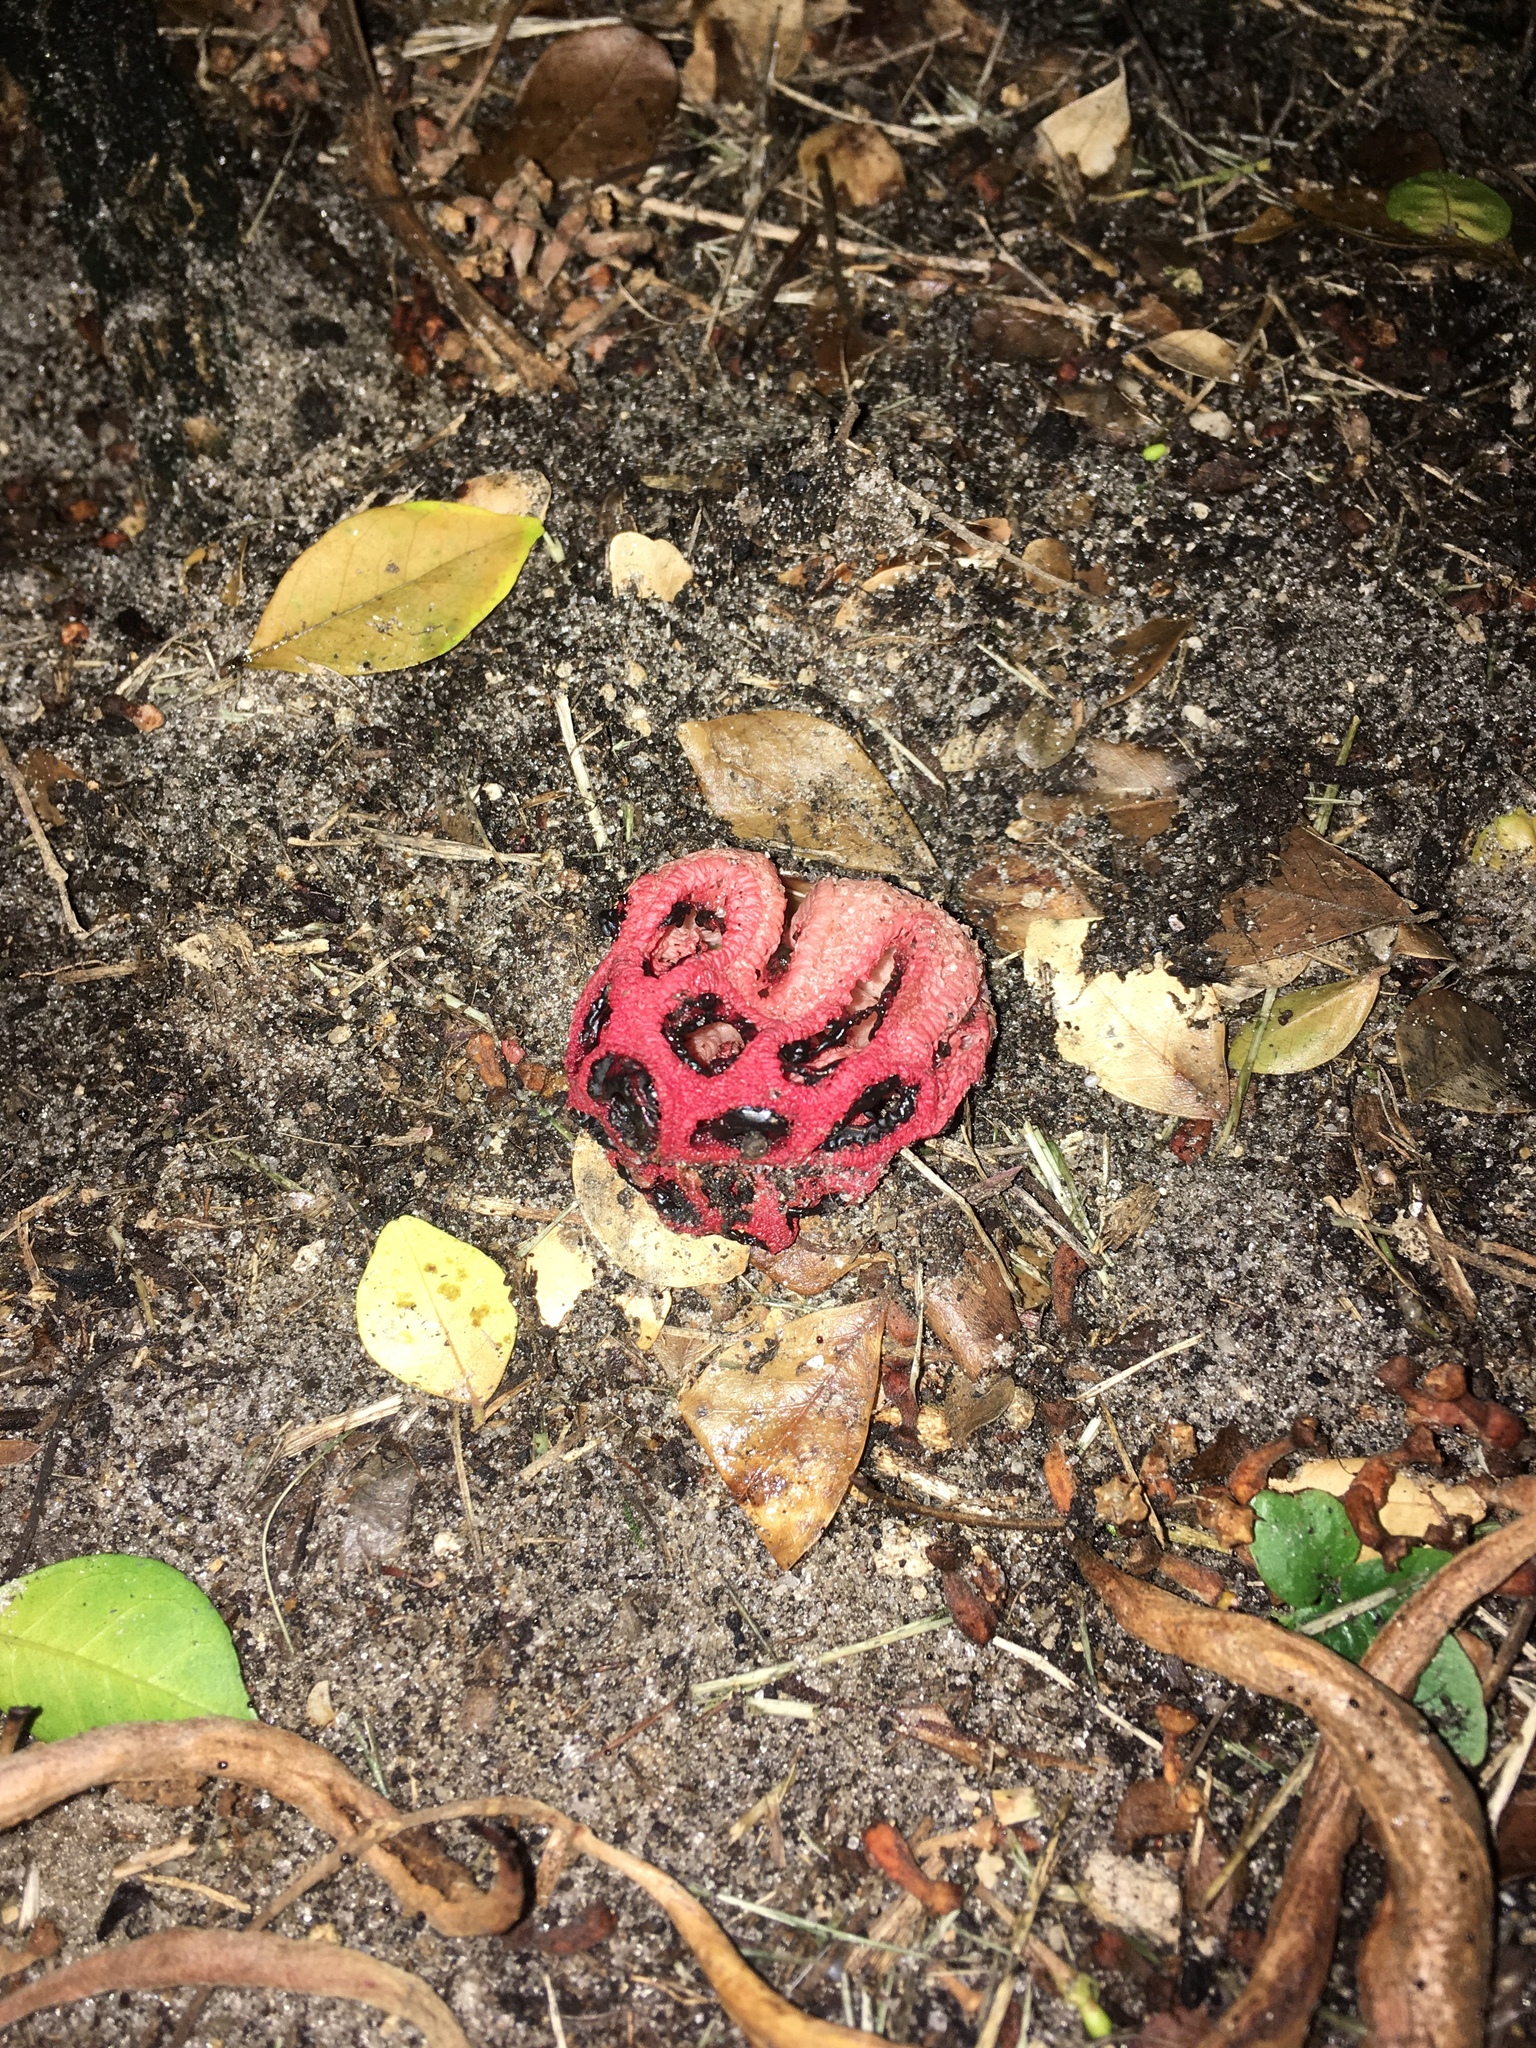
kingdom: Fungi
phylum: Basidiomycota
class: Agaricomycetes
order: Phallales
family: Phallaceae
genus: Clathrus
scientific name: Clathrus crispatus
